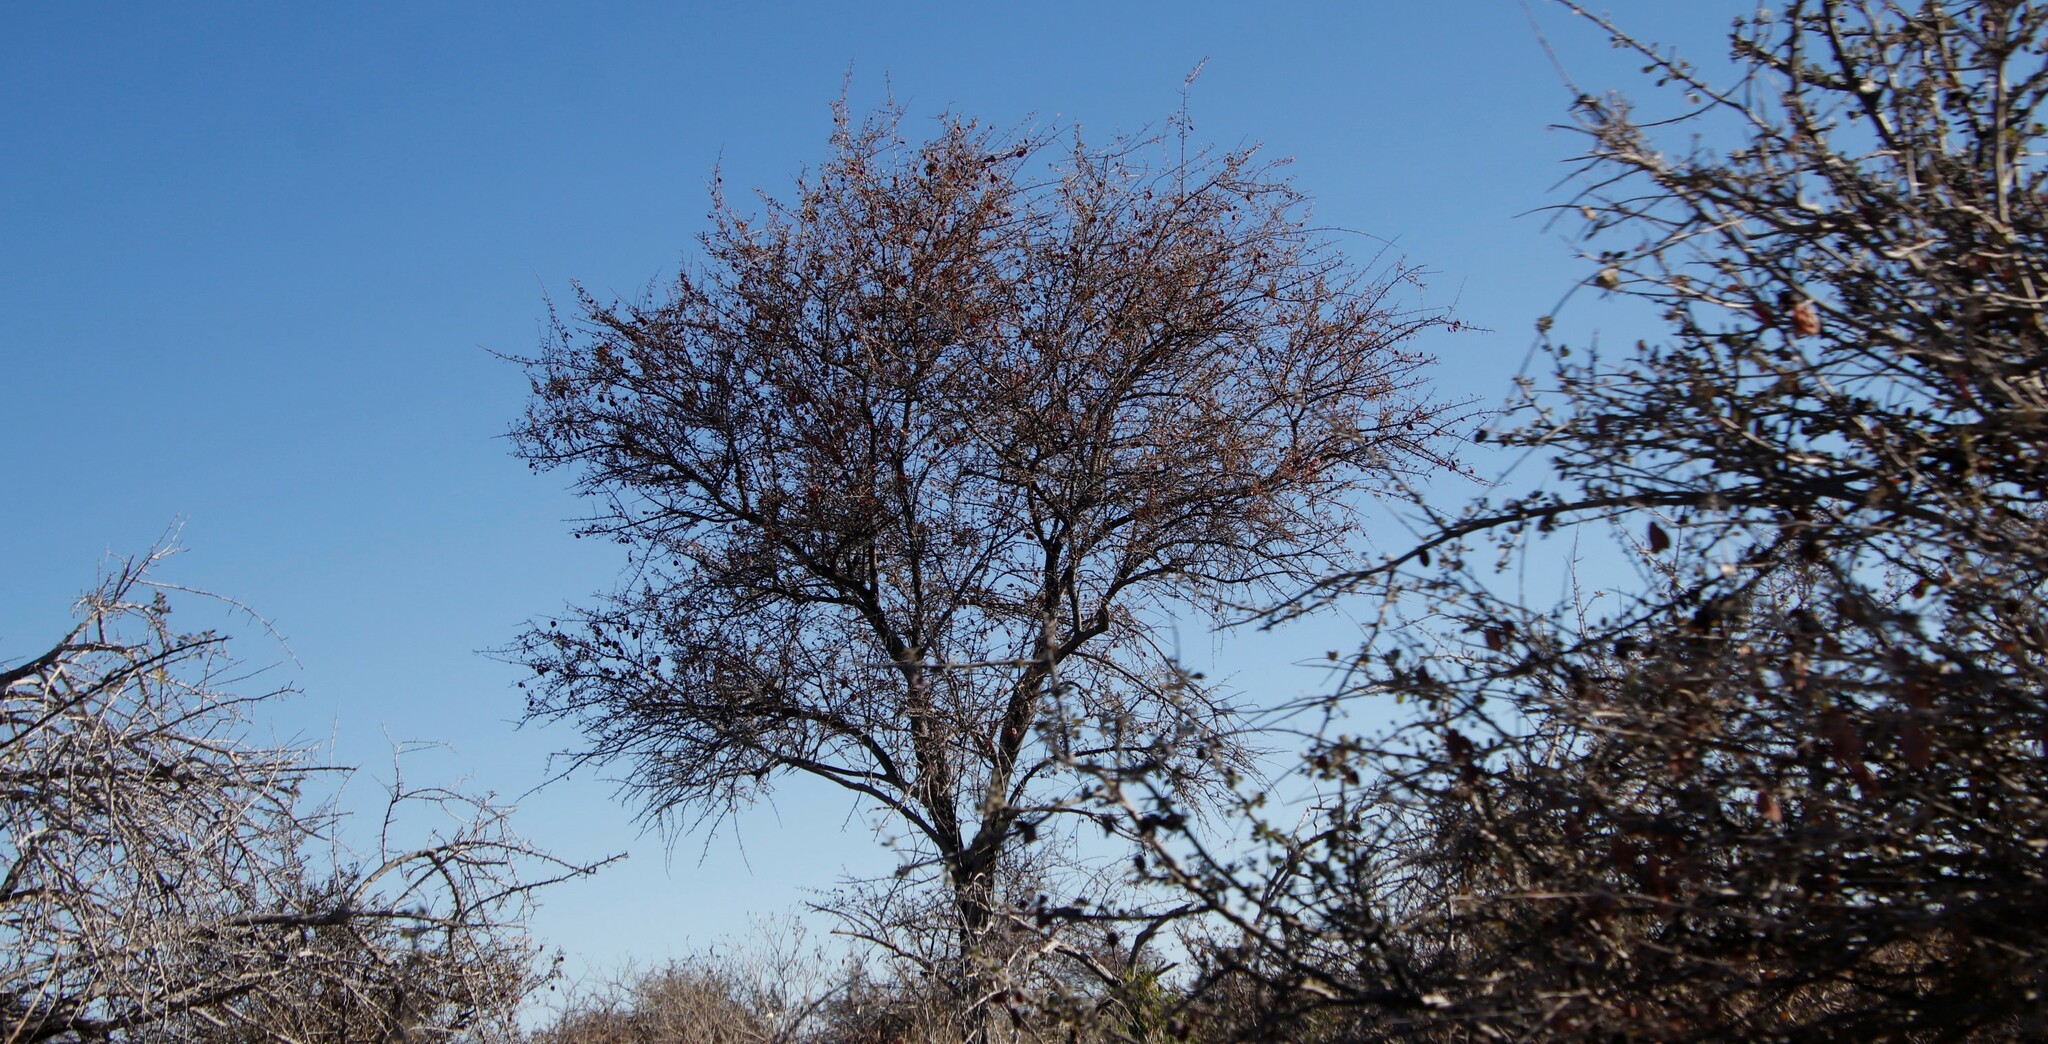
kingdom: Plantae
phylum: Tracheophyta
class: Magnoliopsida
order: Myrtales
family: Combretaceae
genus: Terminalia
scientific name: Terminalia prunioides
